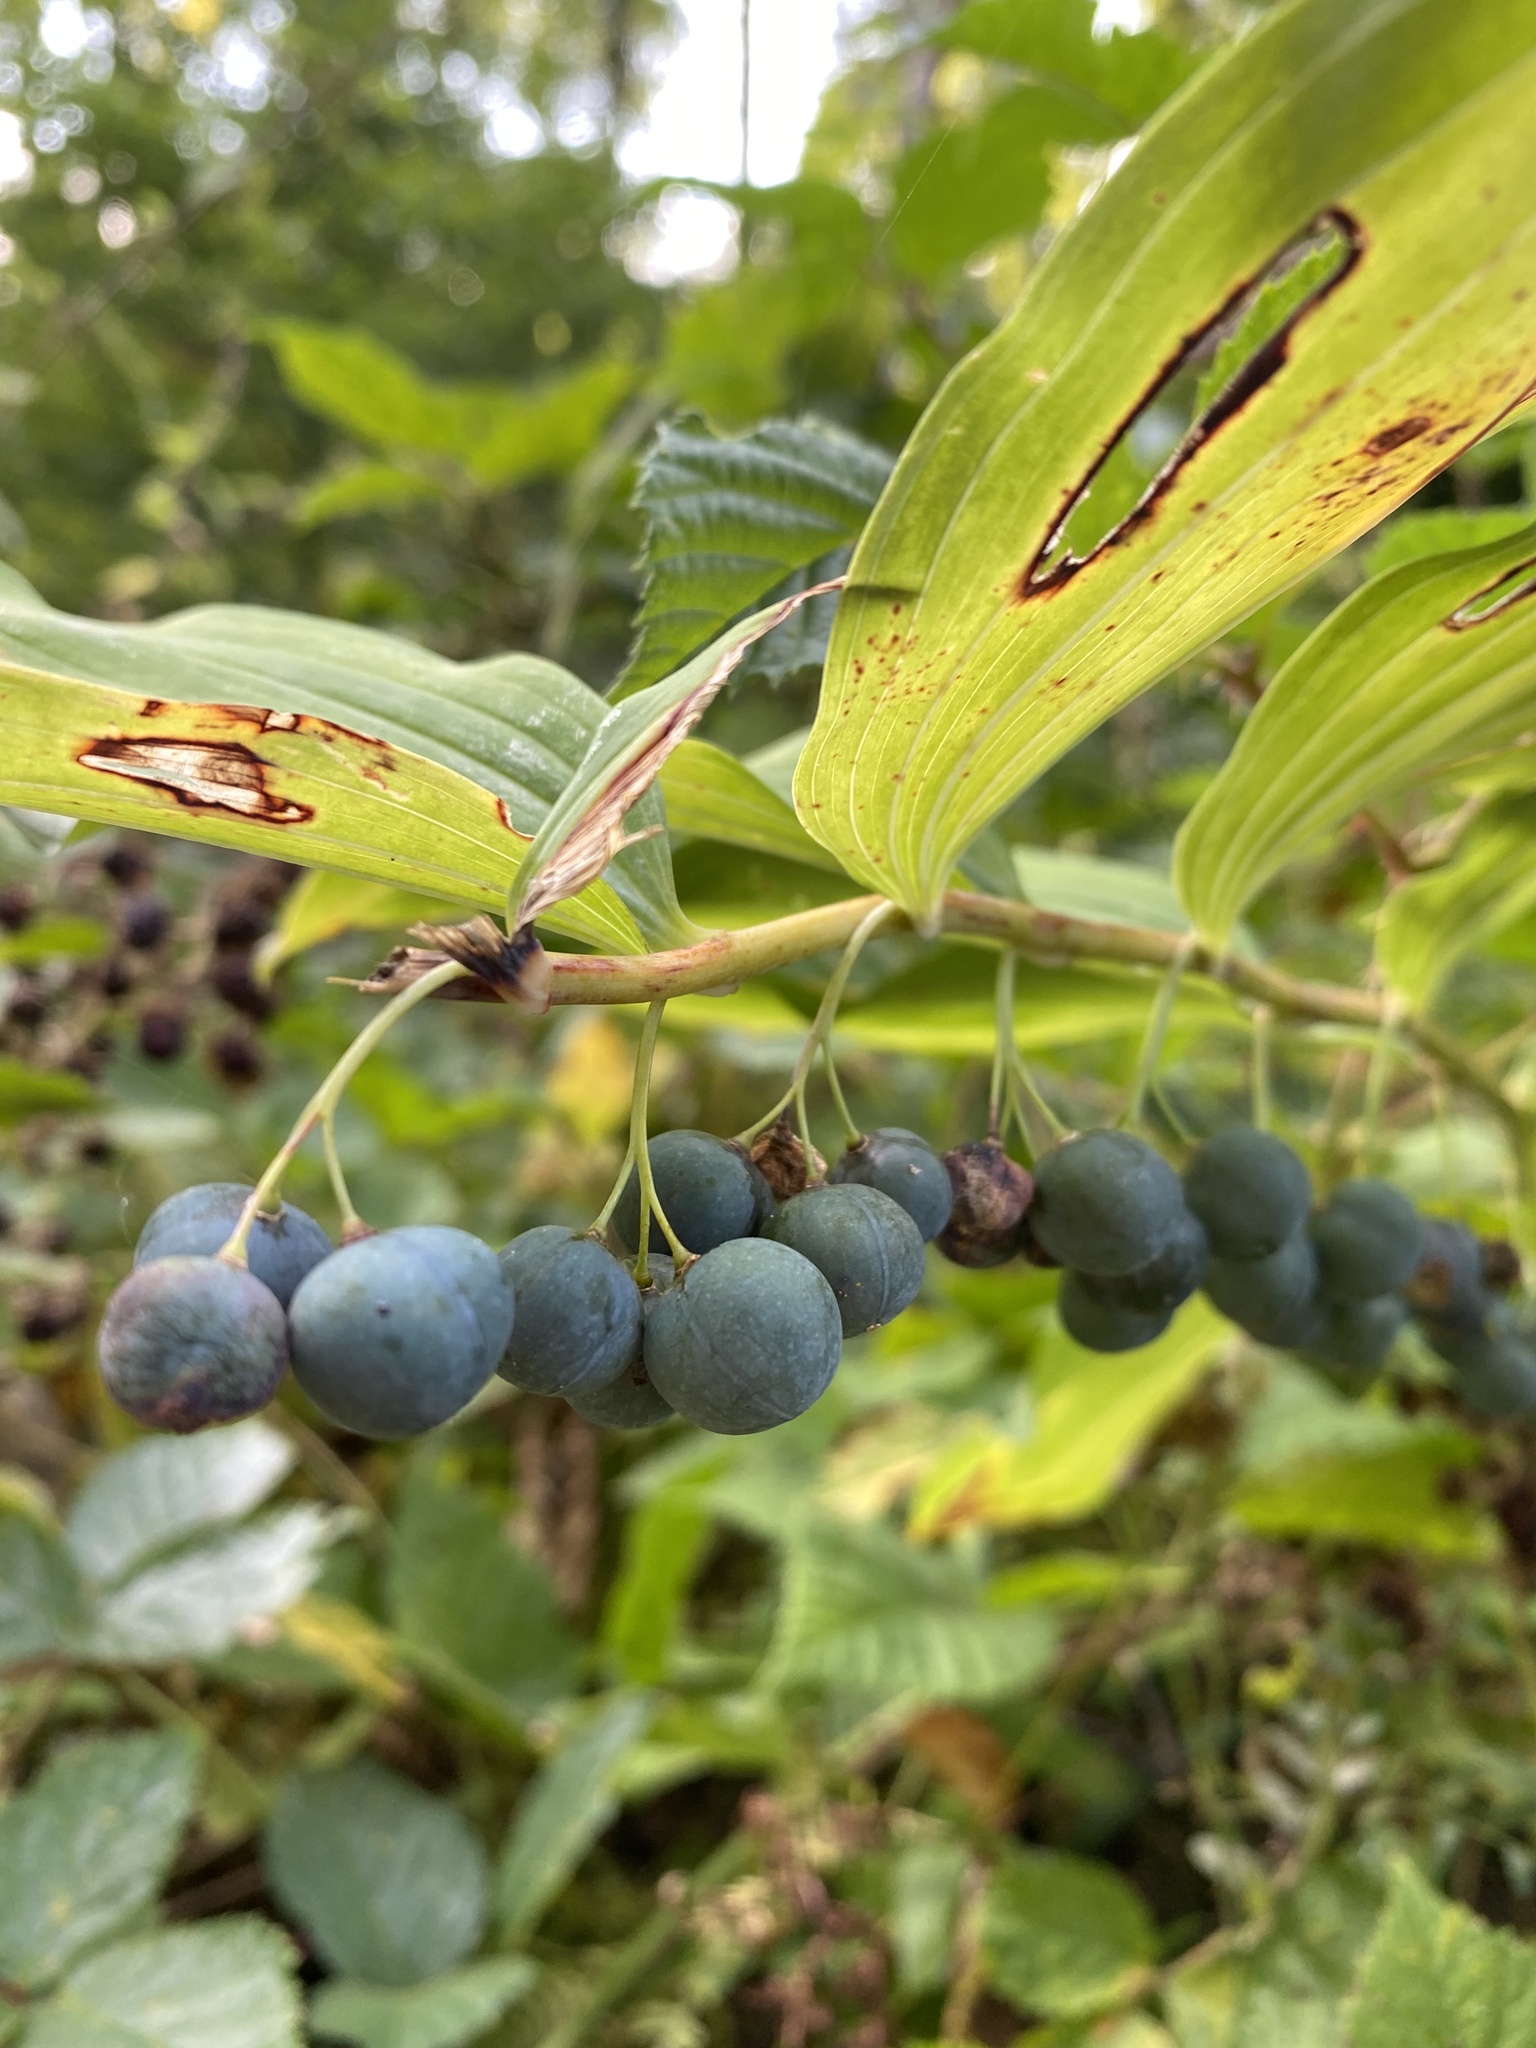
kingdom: Plantae
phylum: Tracheophyta
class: Liliopsida
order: Asparagales
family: Asparagaceae
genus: Polygonatum
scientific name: Polygonatum multiflorum
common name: Solomon's-seal
